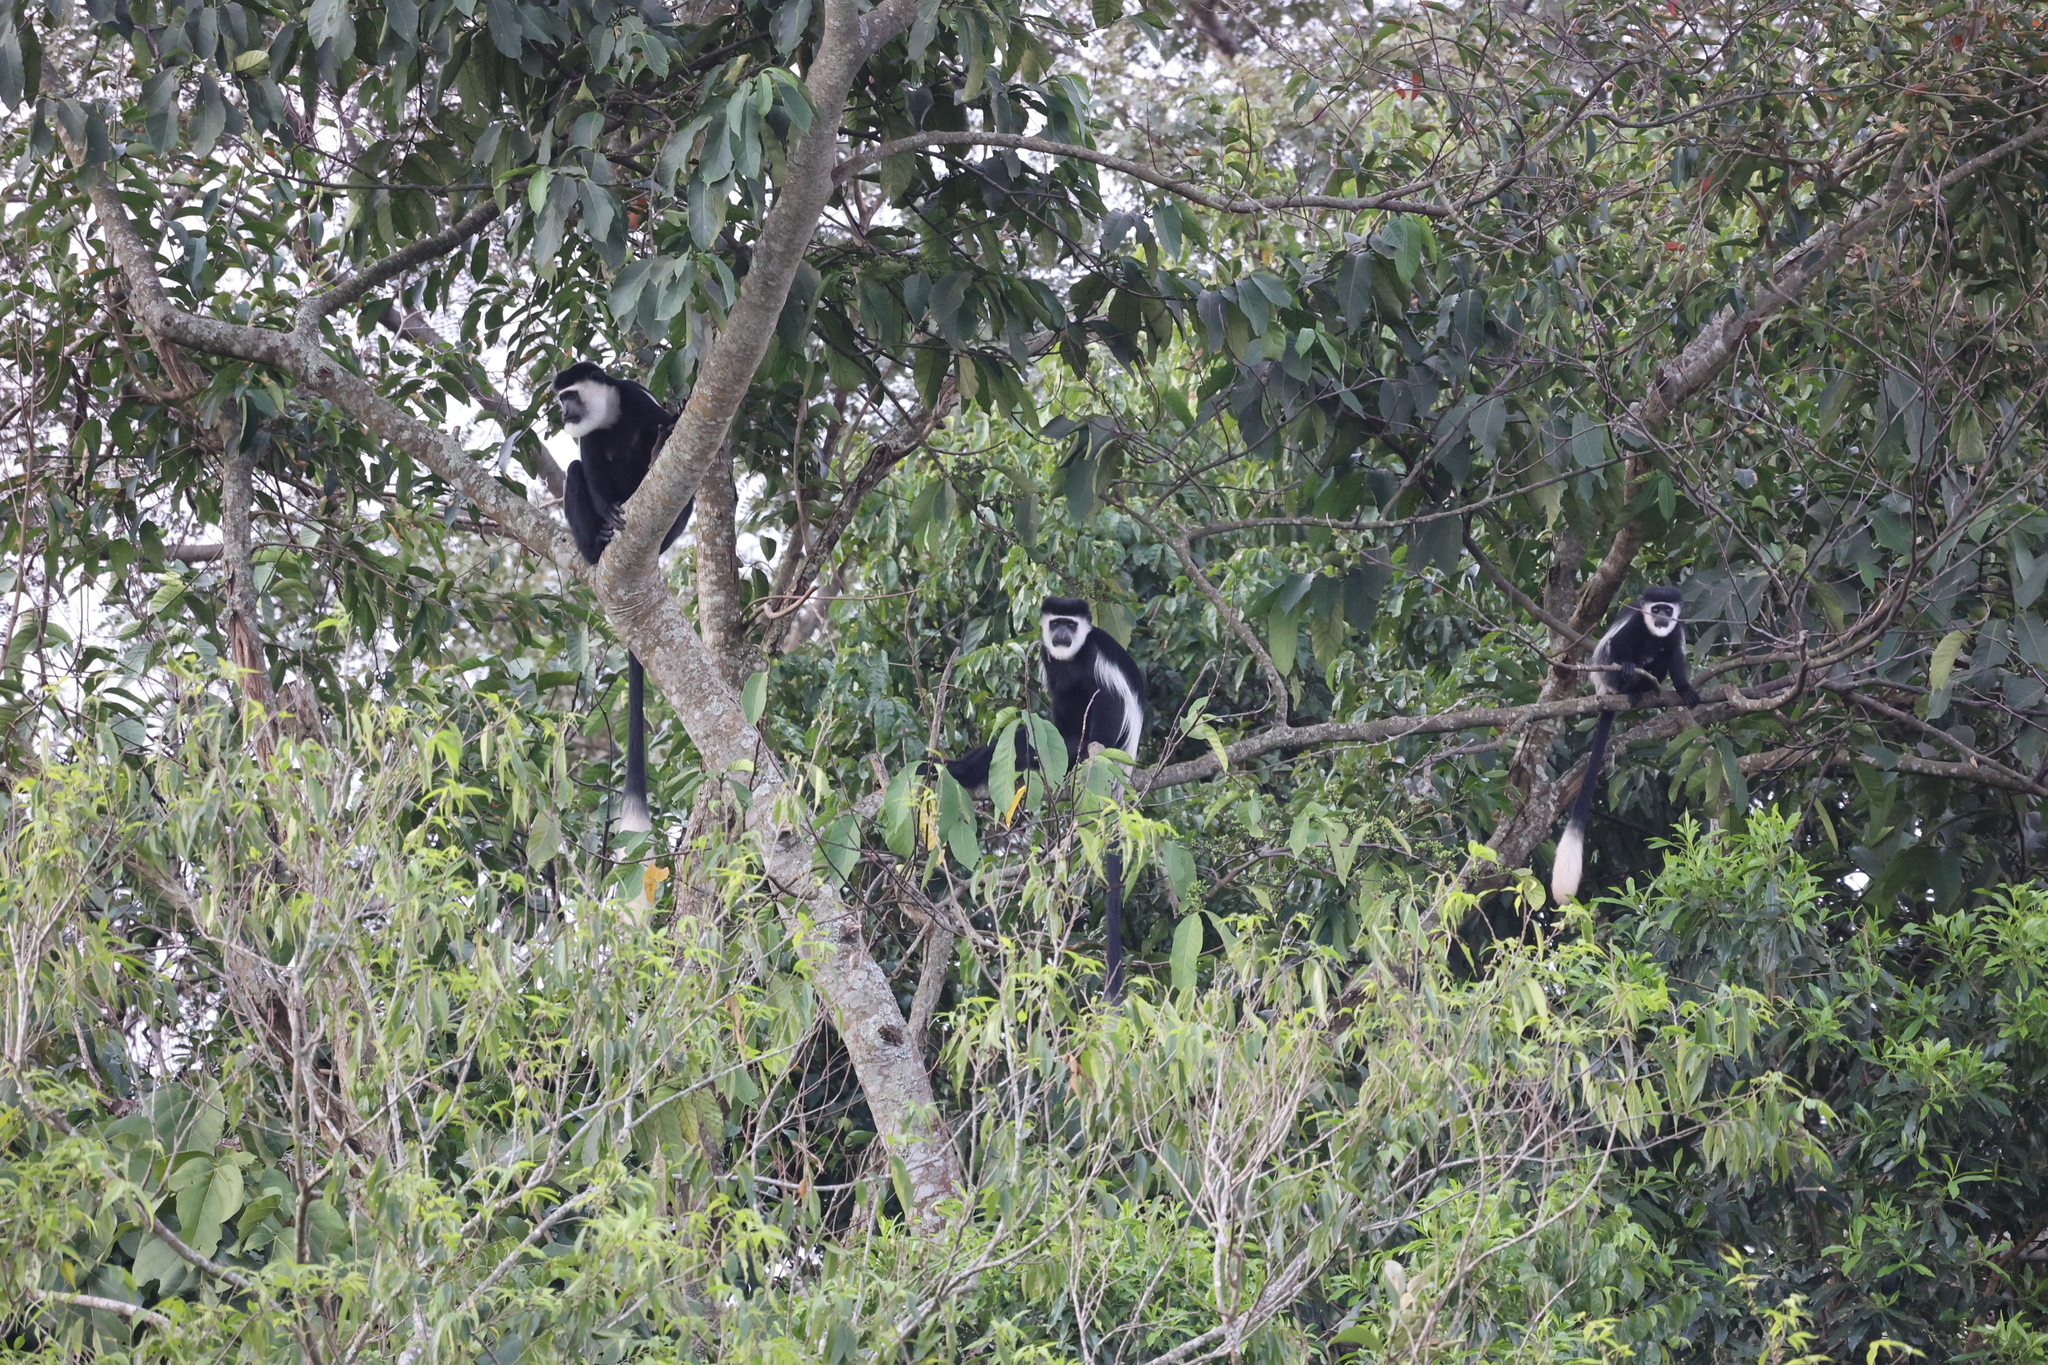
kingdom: Animalia
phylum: Chordata
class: Mammalia
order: Primates
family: Cercopithecidae
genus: Colobus
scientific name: Colobus guereza
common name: Mantled guereza
